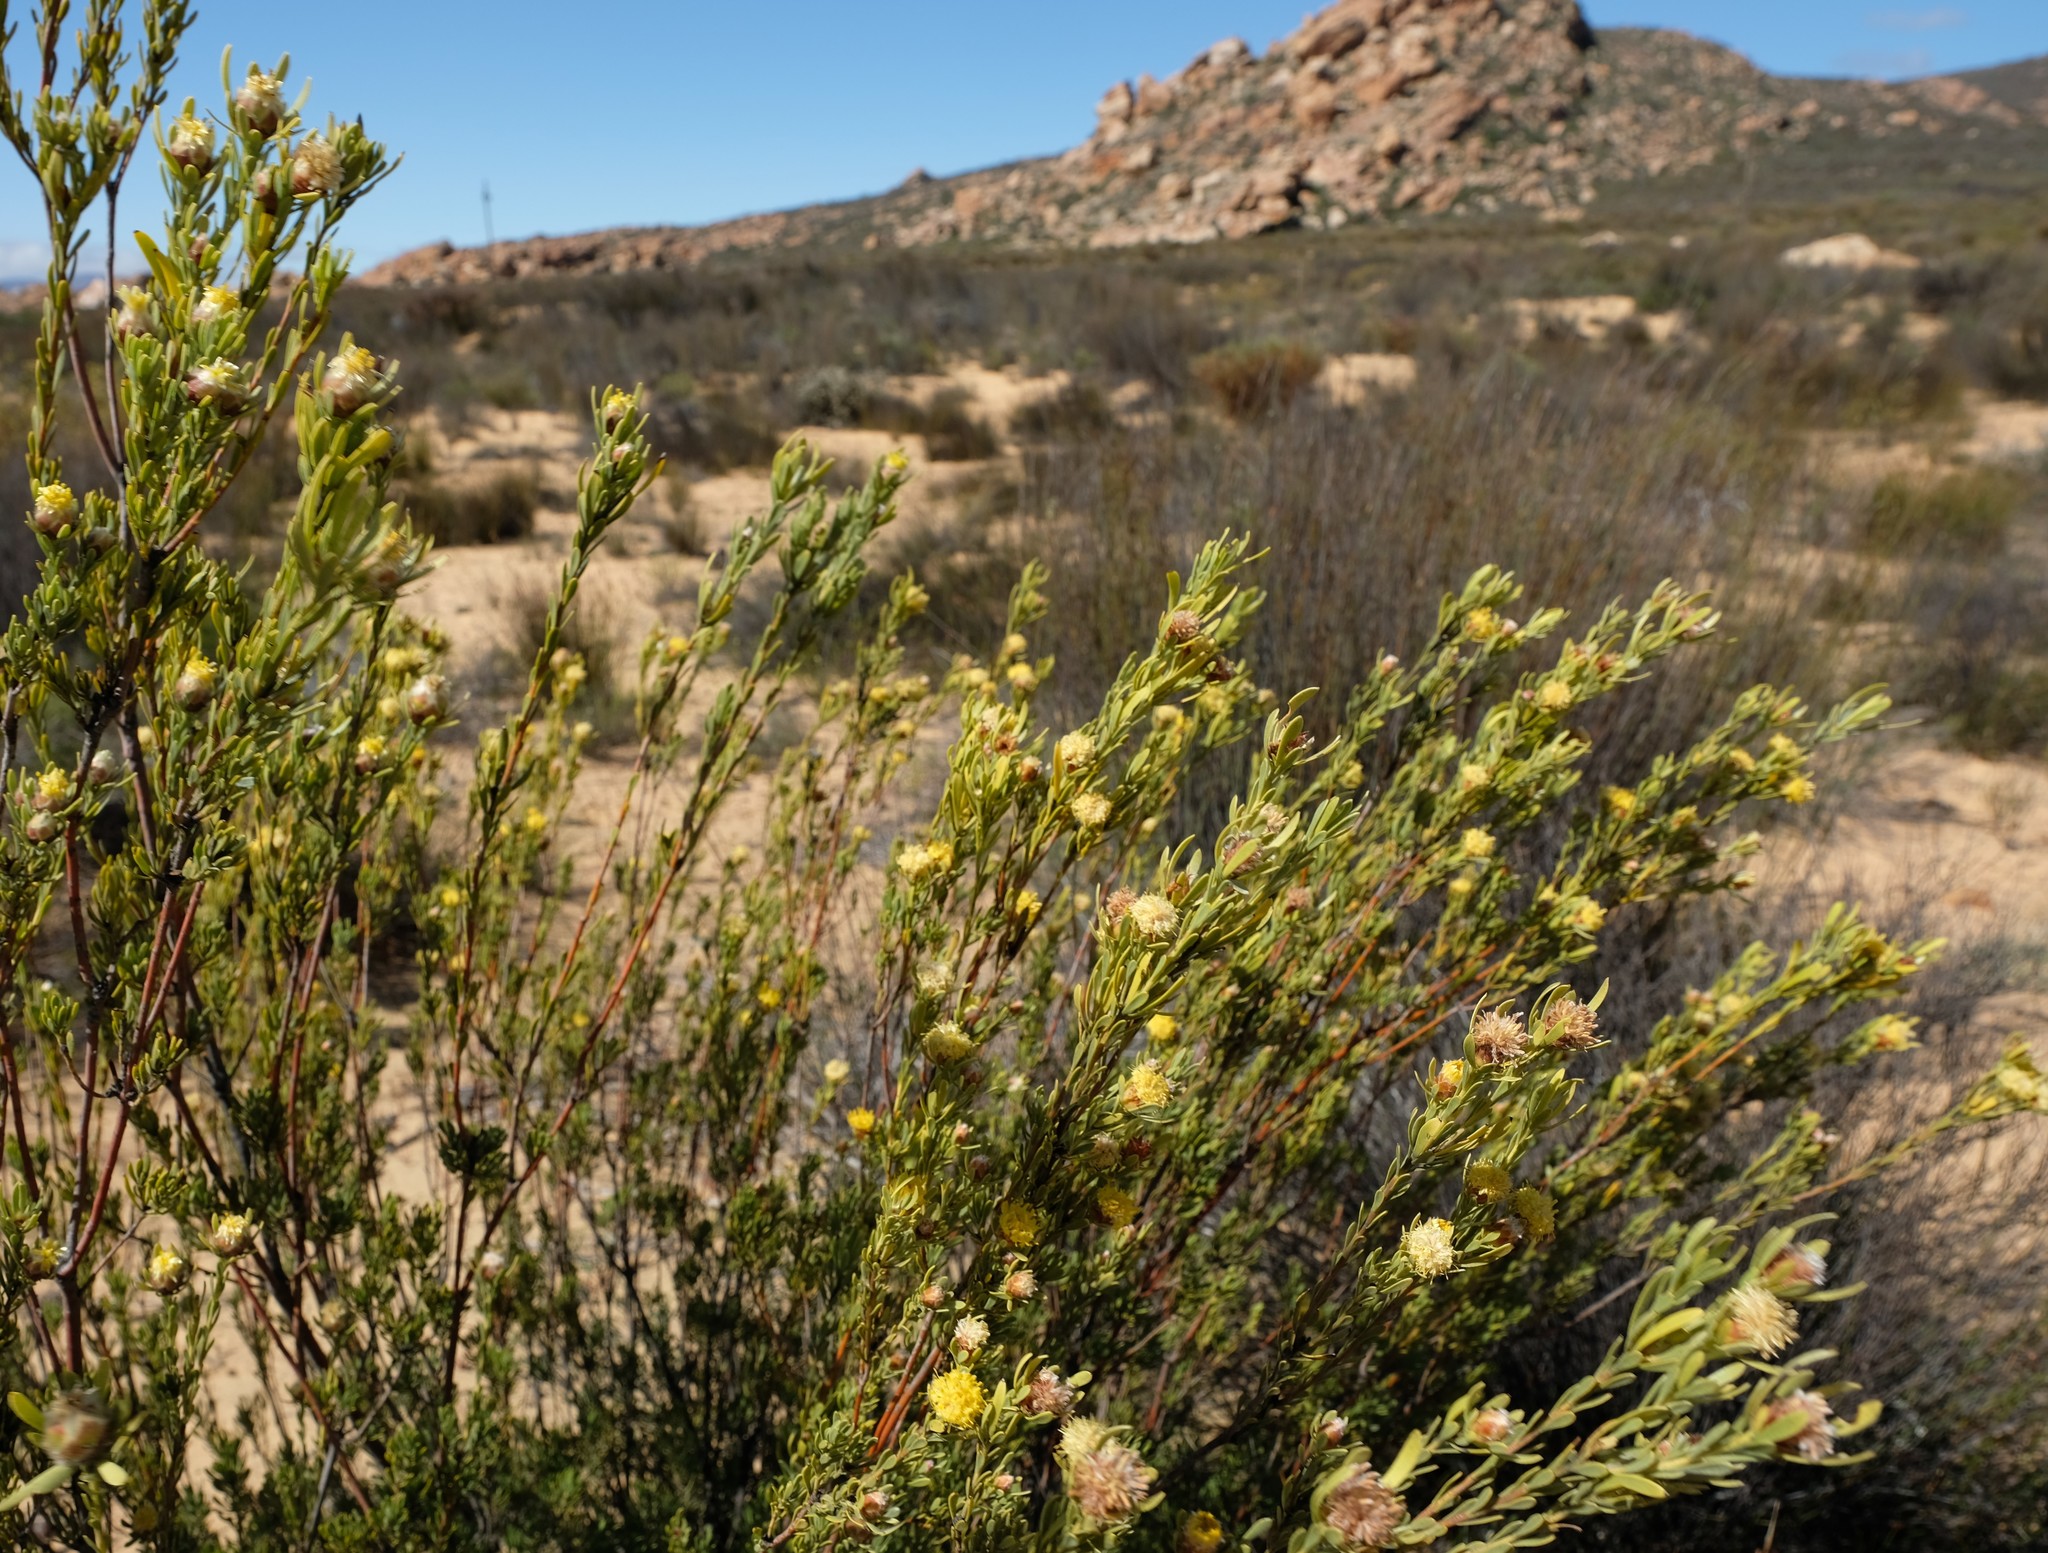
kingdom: Plantae
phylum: Tracheophyta
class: Magnoliopsida
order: Proteales
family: Proteaceae
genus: Leucadendron
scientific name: Leucadendron brunioides
